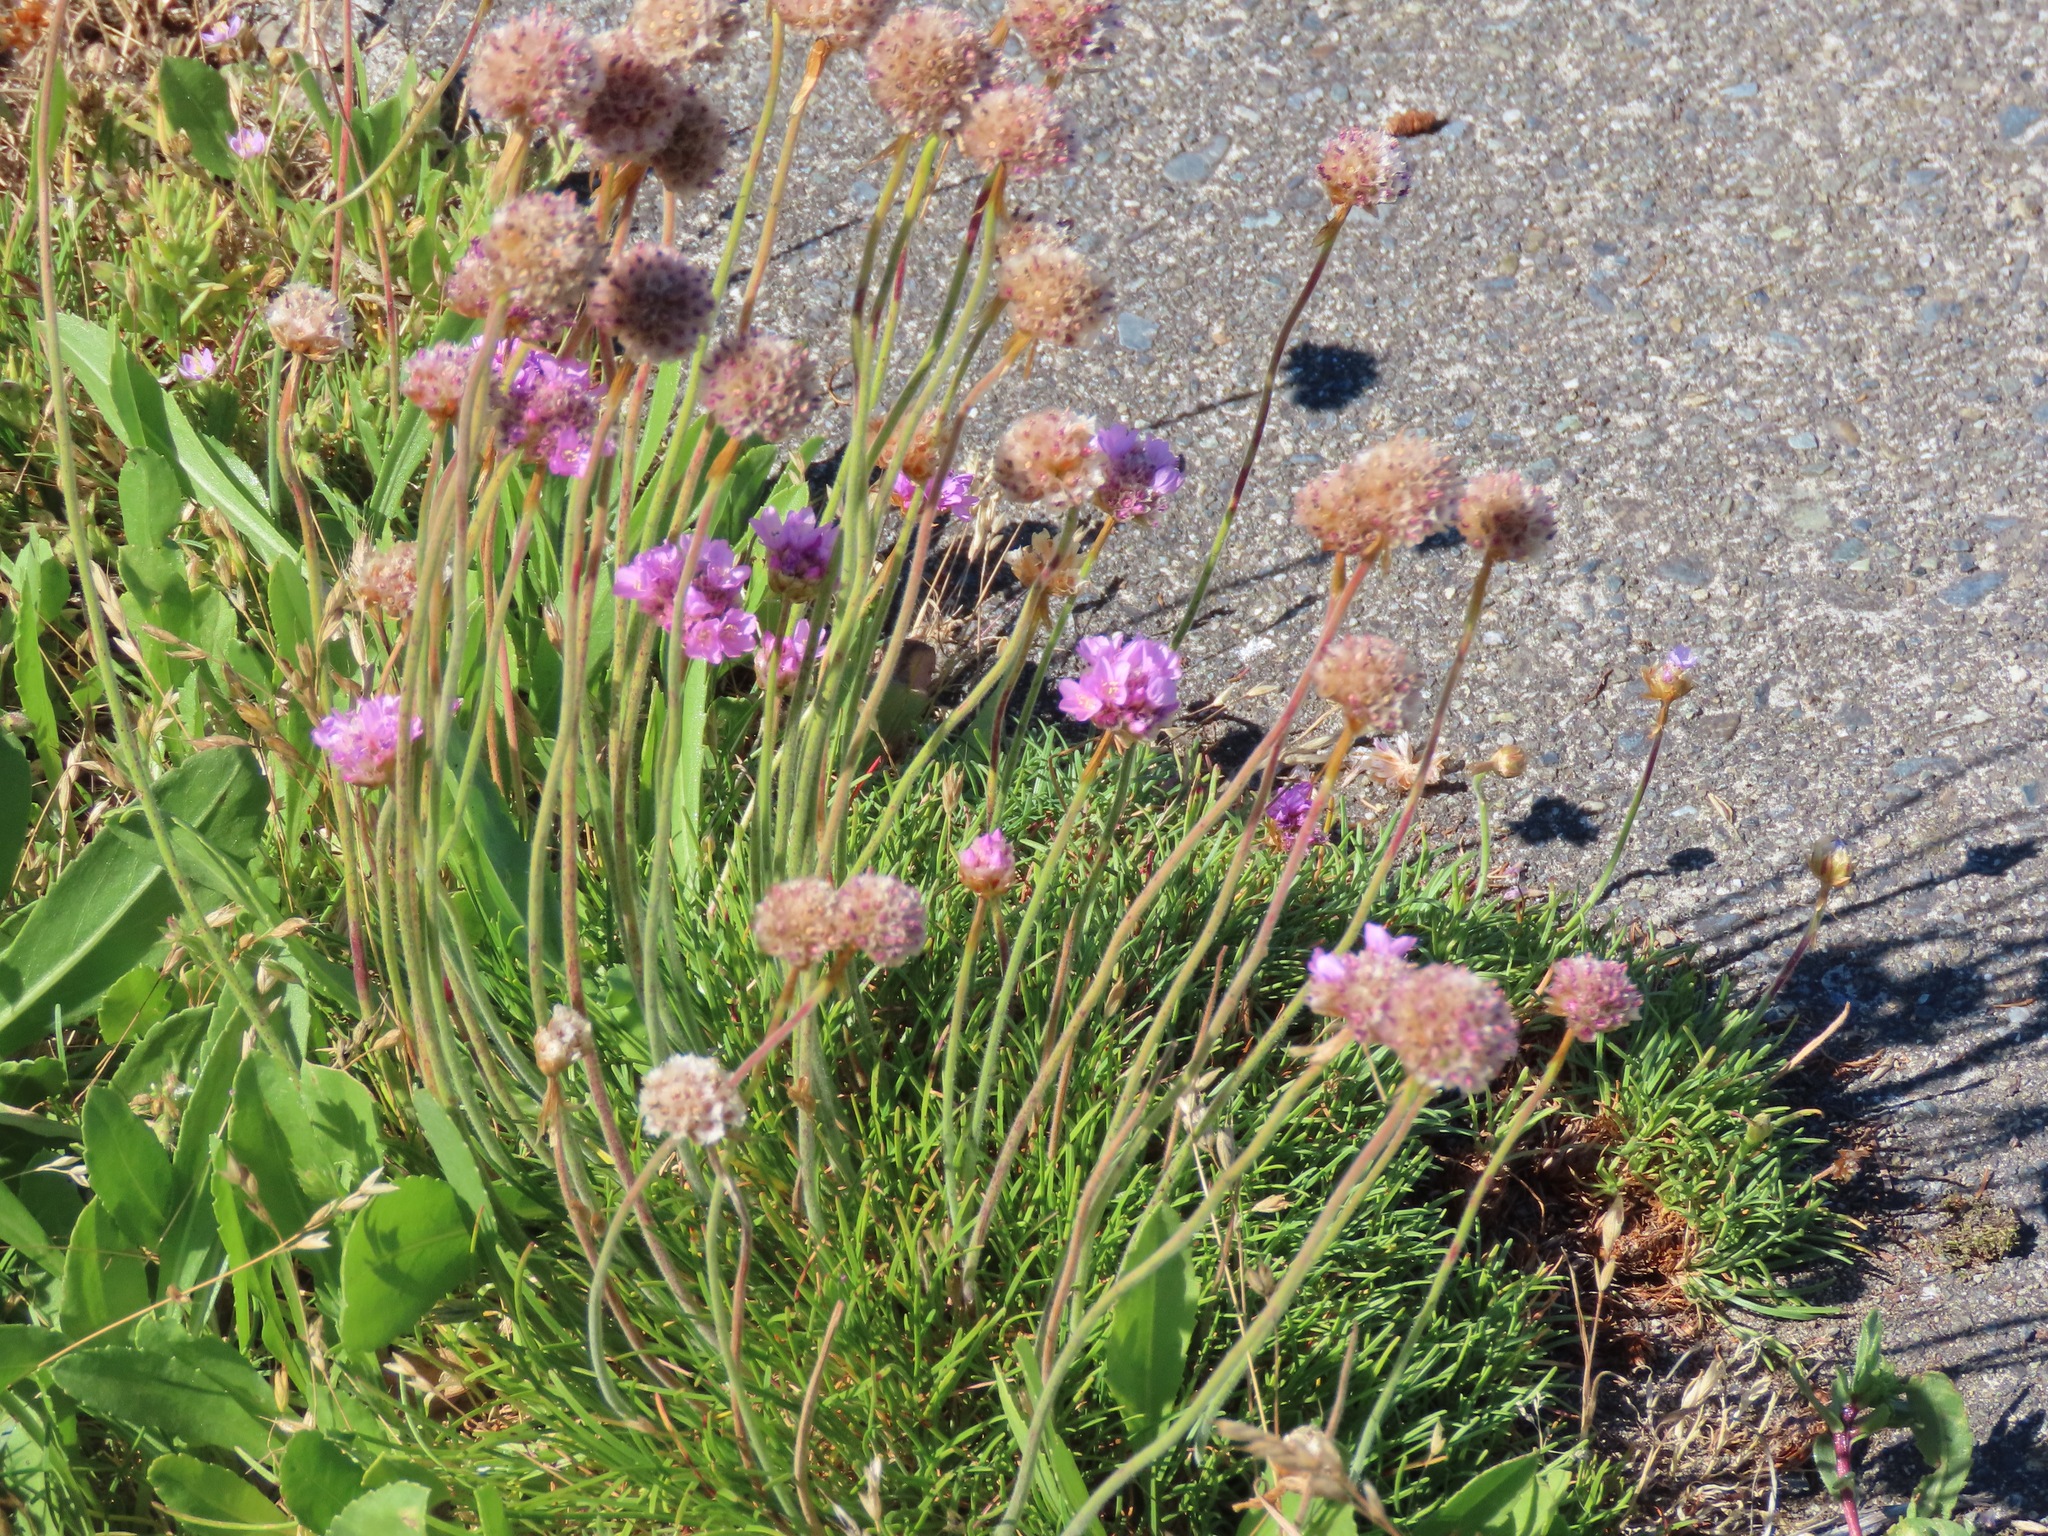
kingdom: Plantae
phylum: Tracheophyta
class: Magnoliopsida
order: Caryophyllales
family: Plumbaginaceae
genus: Armeria
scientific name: Armeria maritima
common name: Thrift
